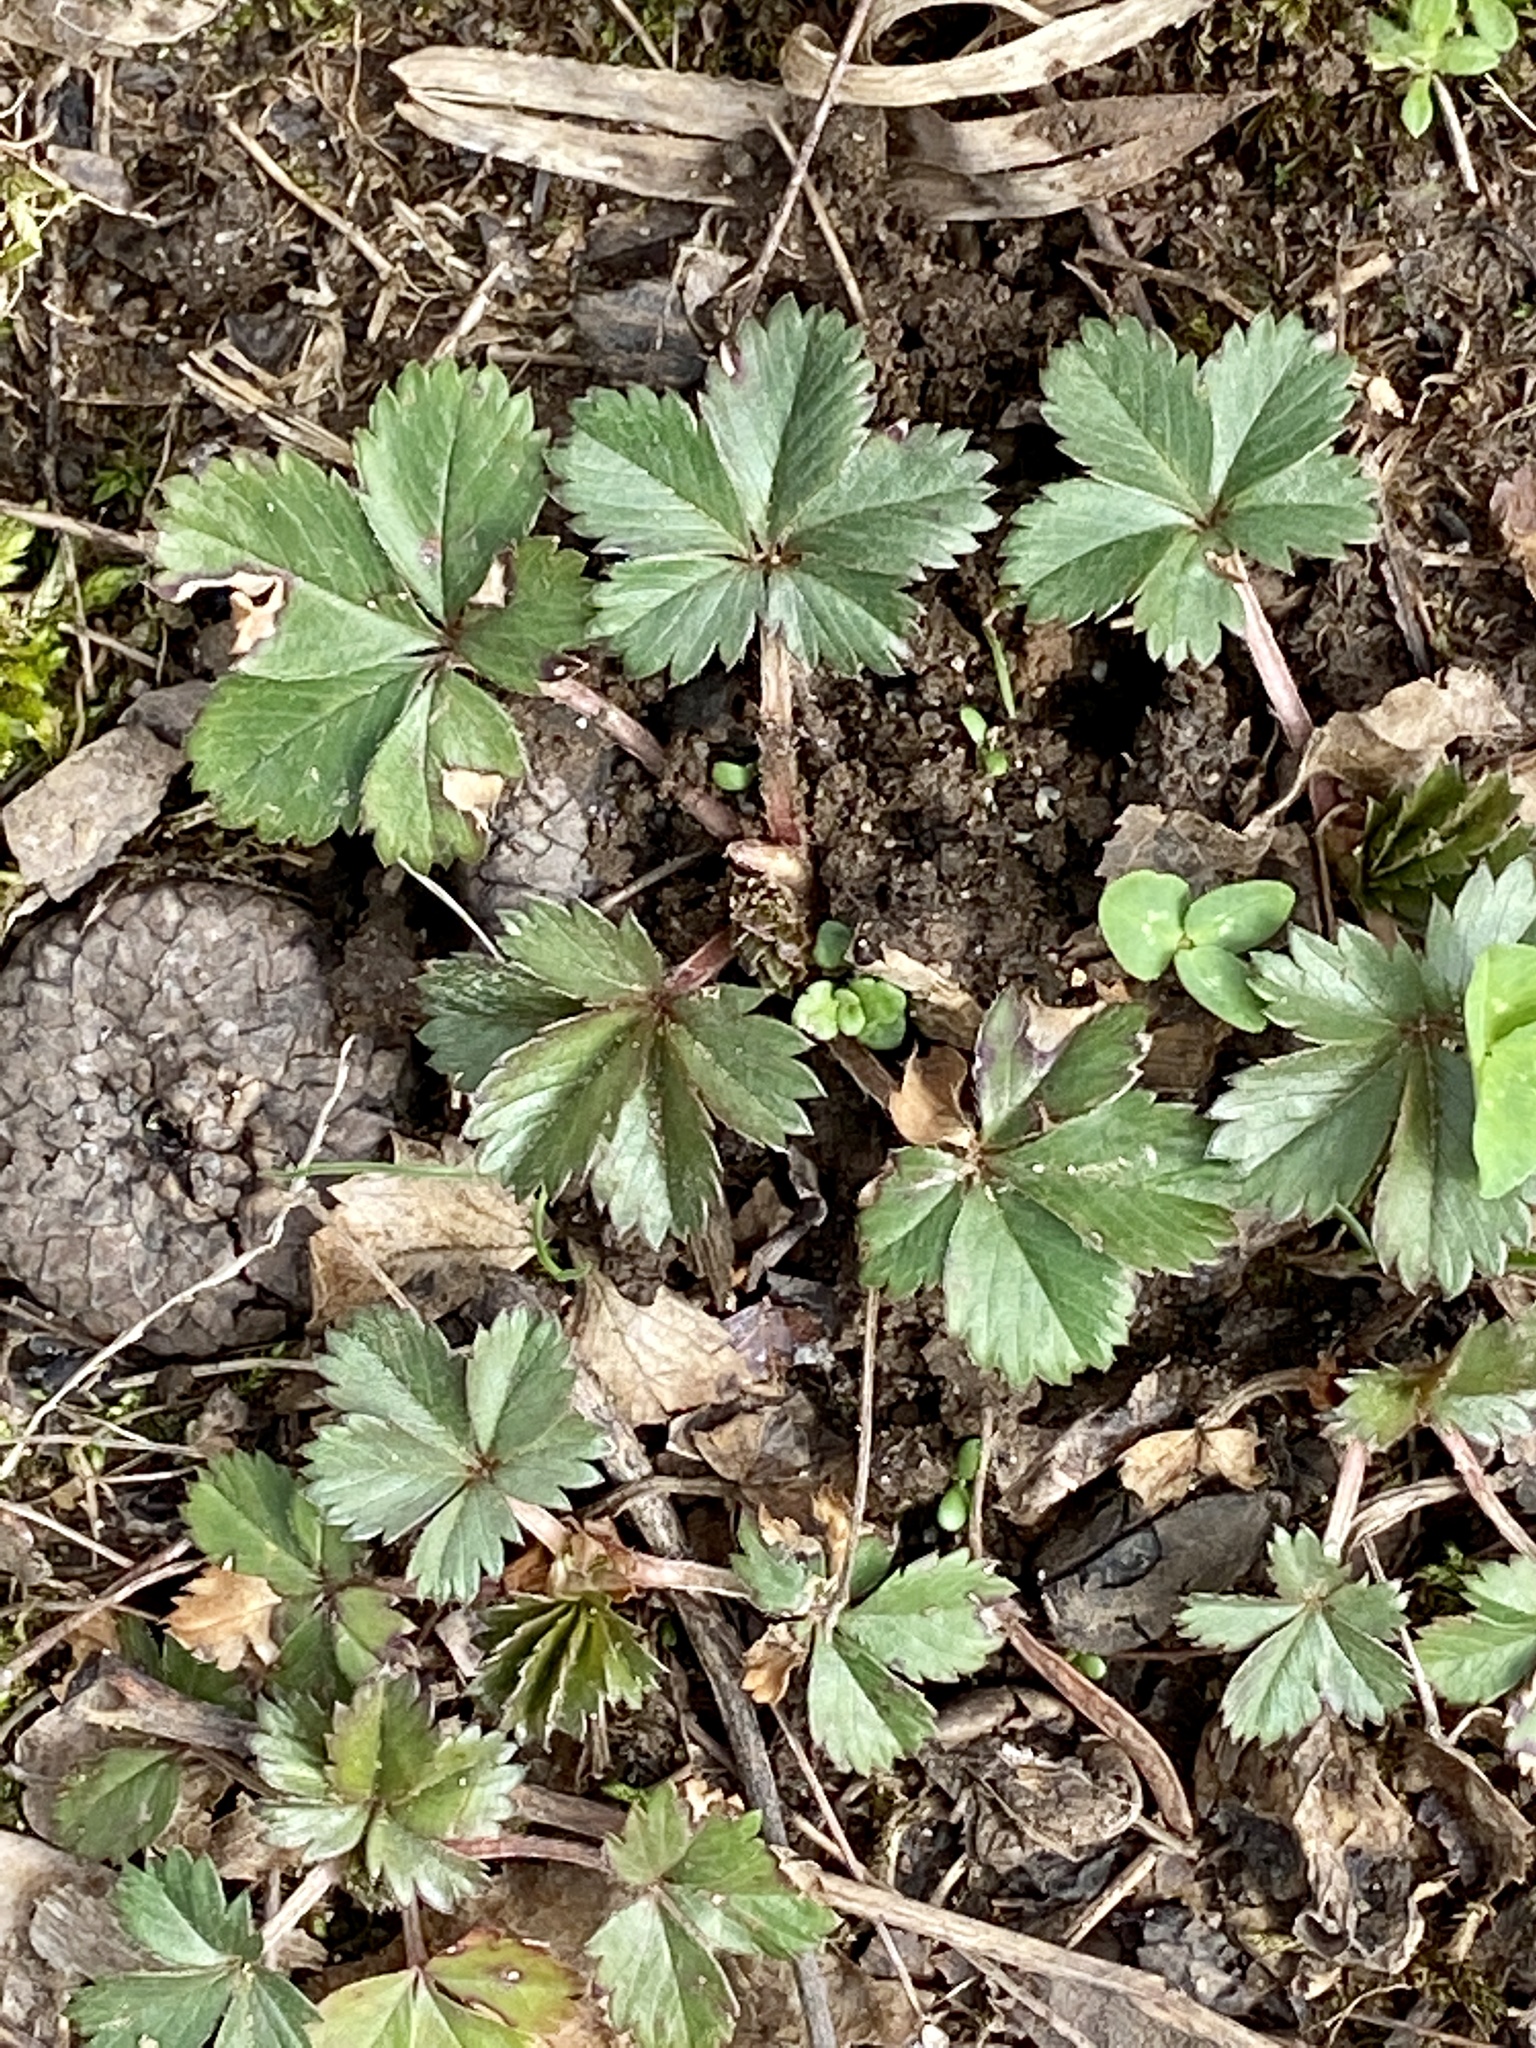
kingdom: Plantae
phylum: Tracheophyta
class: Magnoliopsida
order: Rosales
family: Rosaceae
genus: Potentilla
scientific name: Potentilla canadensis
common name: Canada cinquefoil
